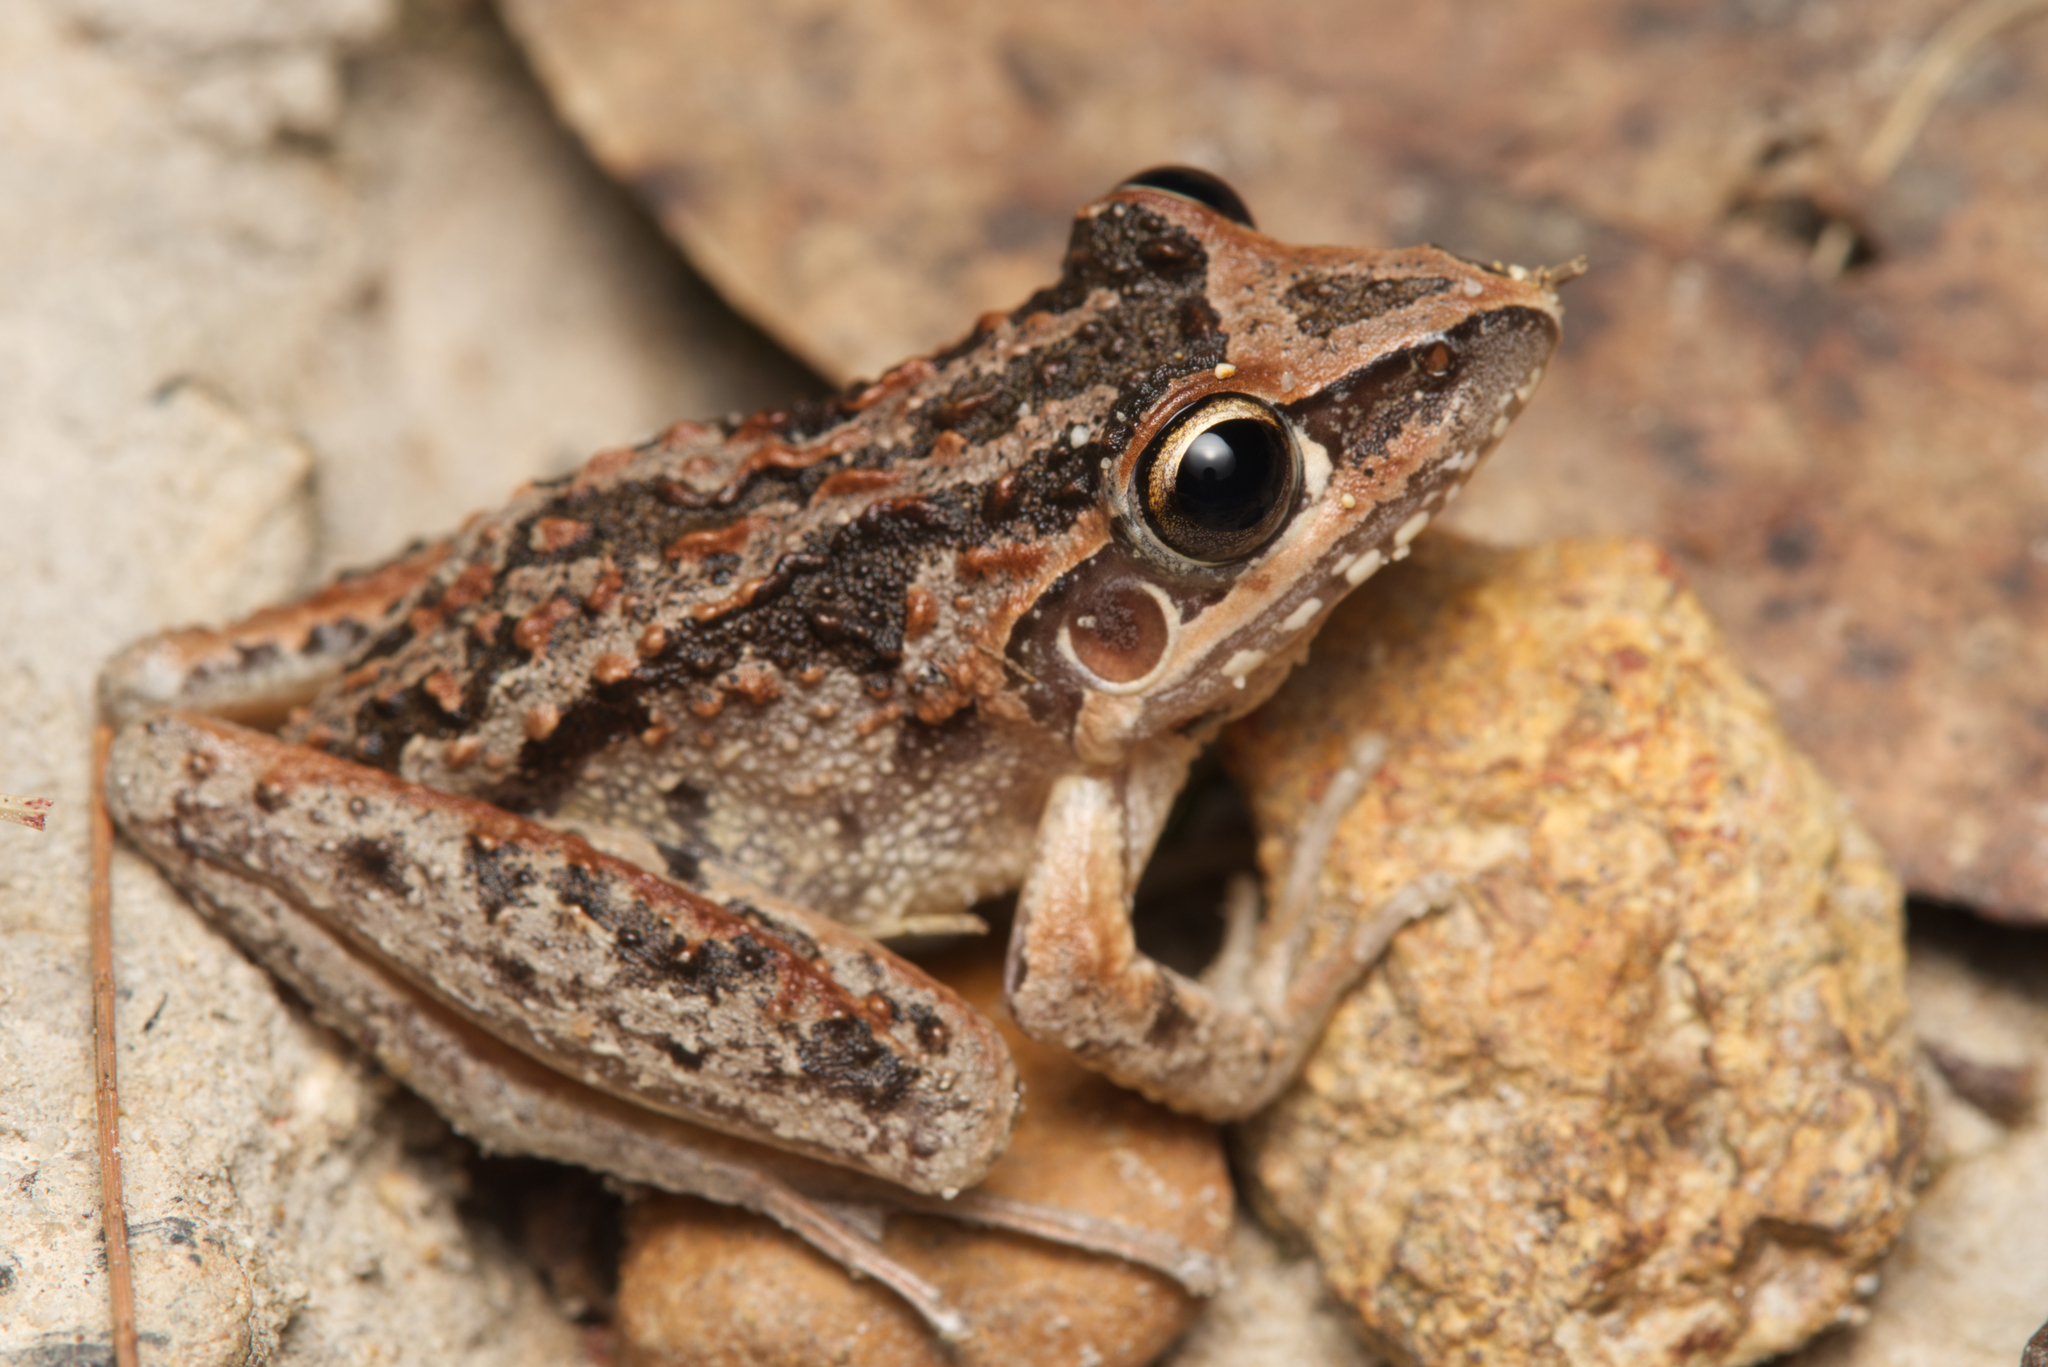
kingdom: Animalia
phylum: Chordata
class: Amphibia
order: Anura
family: Pelodryadidae
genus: Litoria
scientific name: Litoria freycineti
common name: Freycinet’s frog
